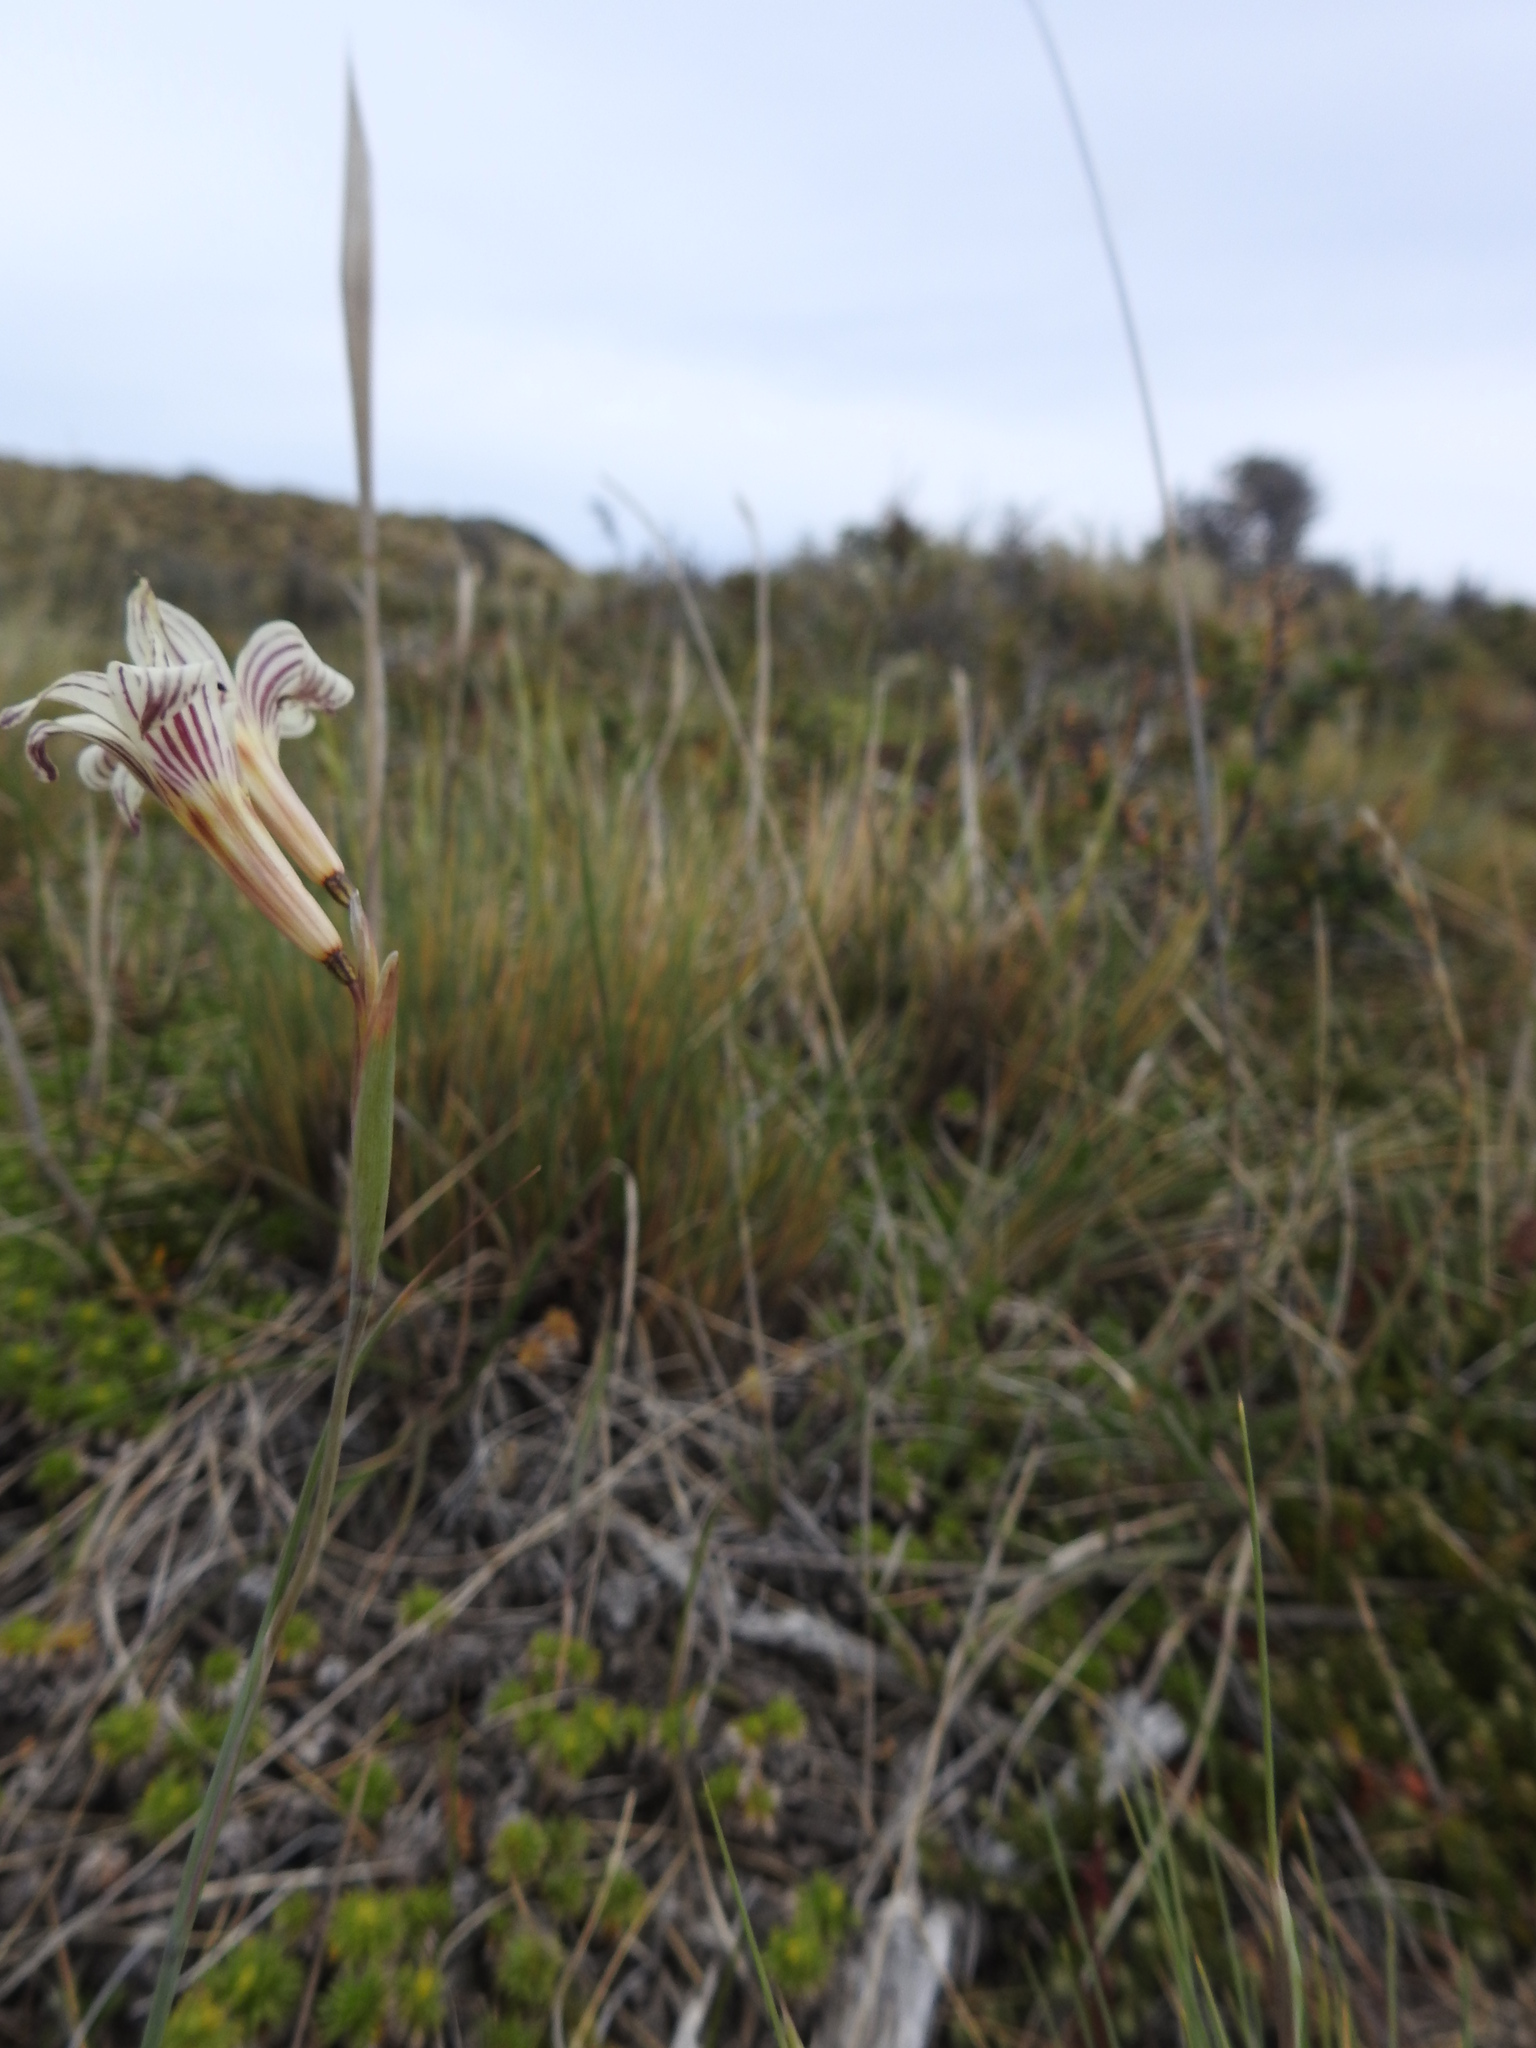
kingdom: Plantae
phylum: Tracheophyta
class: Liliopsida
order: Asparagales
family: Iridaceae
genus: Olsynium
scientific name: Olsynium biflorum
